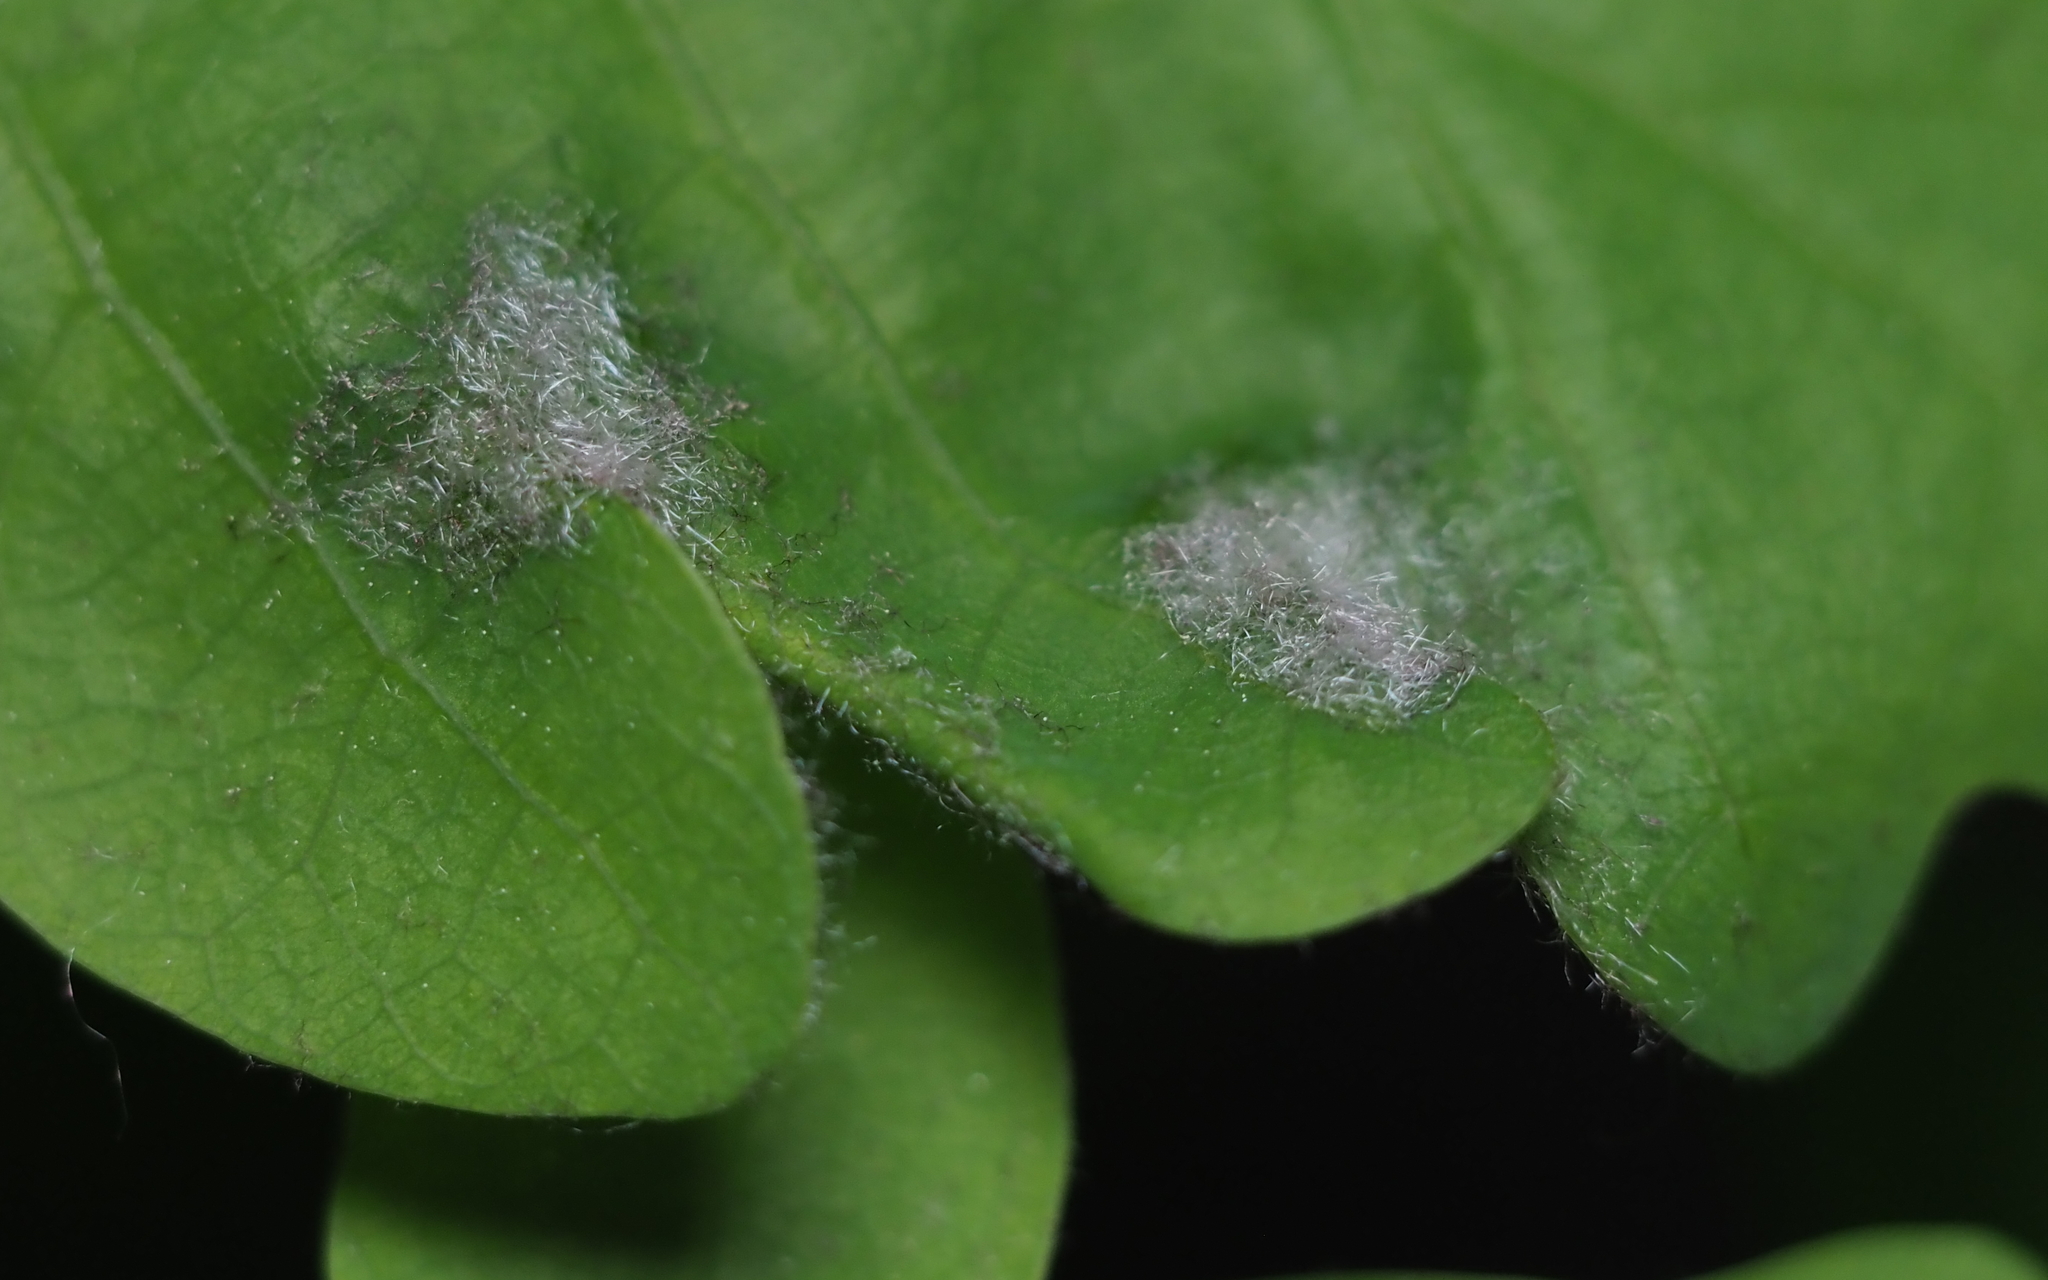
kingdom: Animalia
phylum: Arthropoda
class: Arachnida
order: Trombidiformes
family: Eriophyidae
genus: Aceria
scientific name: Aceria
